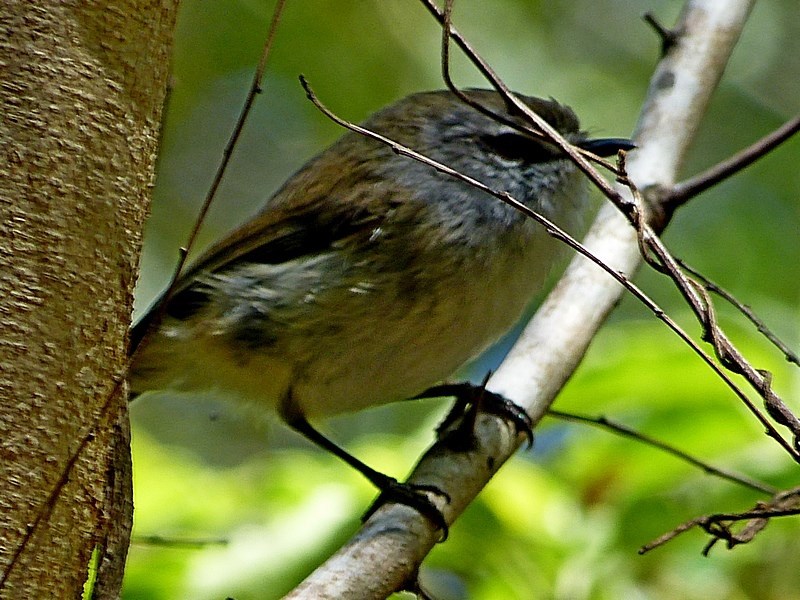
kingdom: Animalia
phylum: Chordata
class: Aves
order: Passeriformes
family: Acanthizidae
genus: Gerygone
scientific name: Gerygone mouki
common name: Brown gerygone
